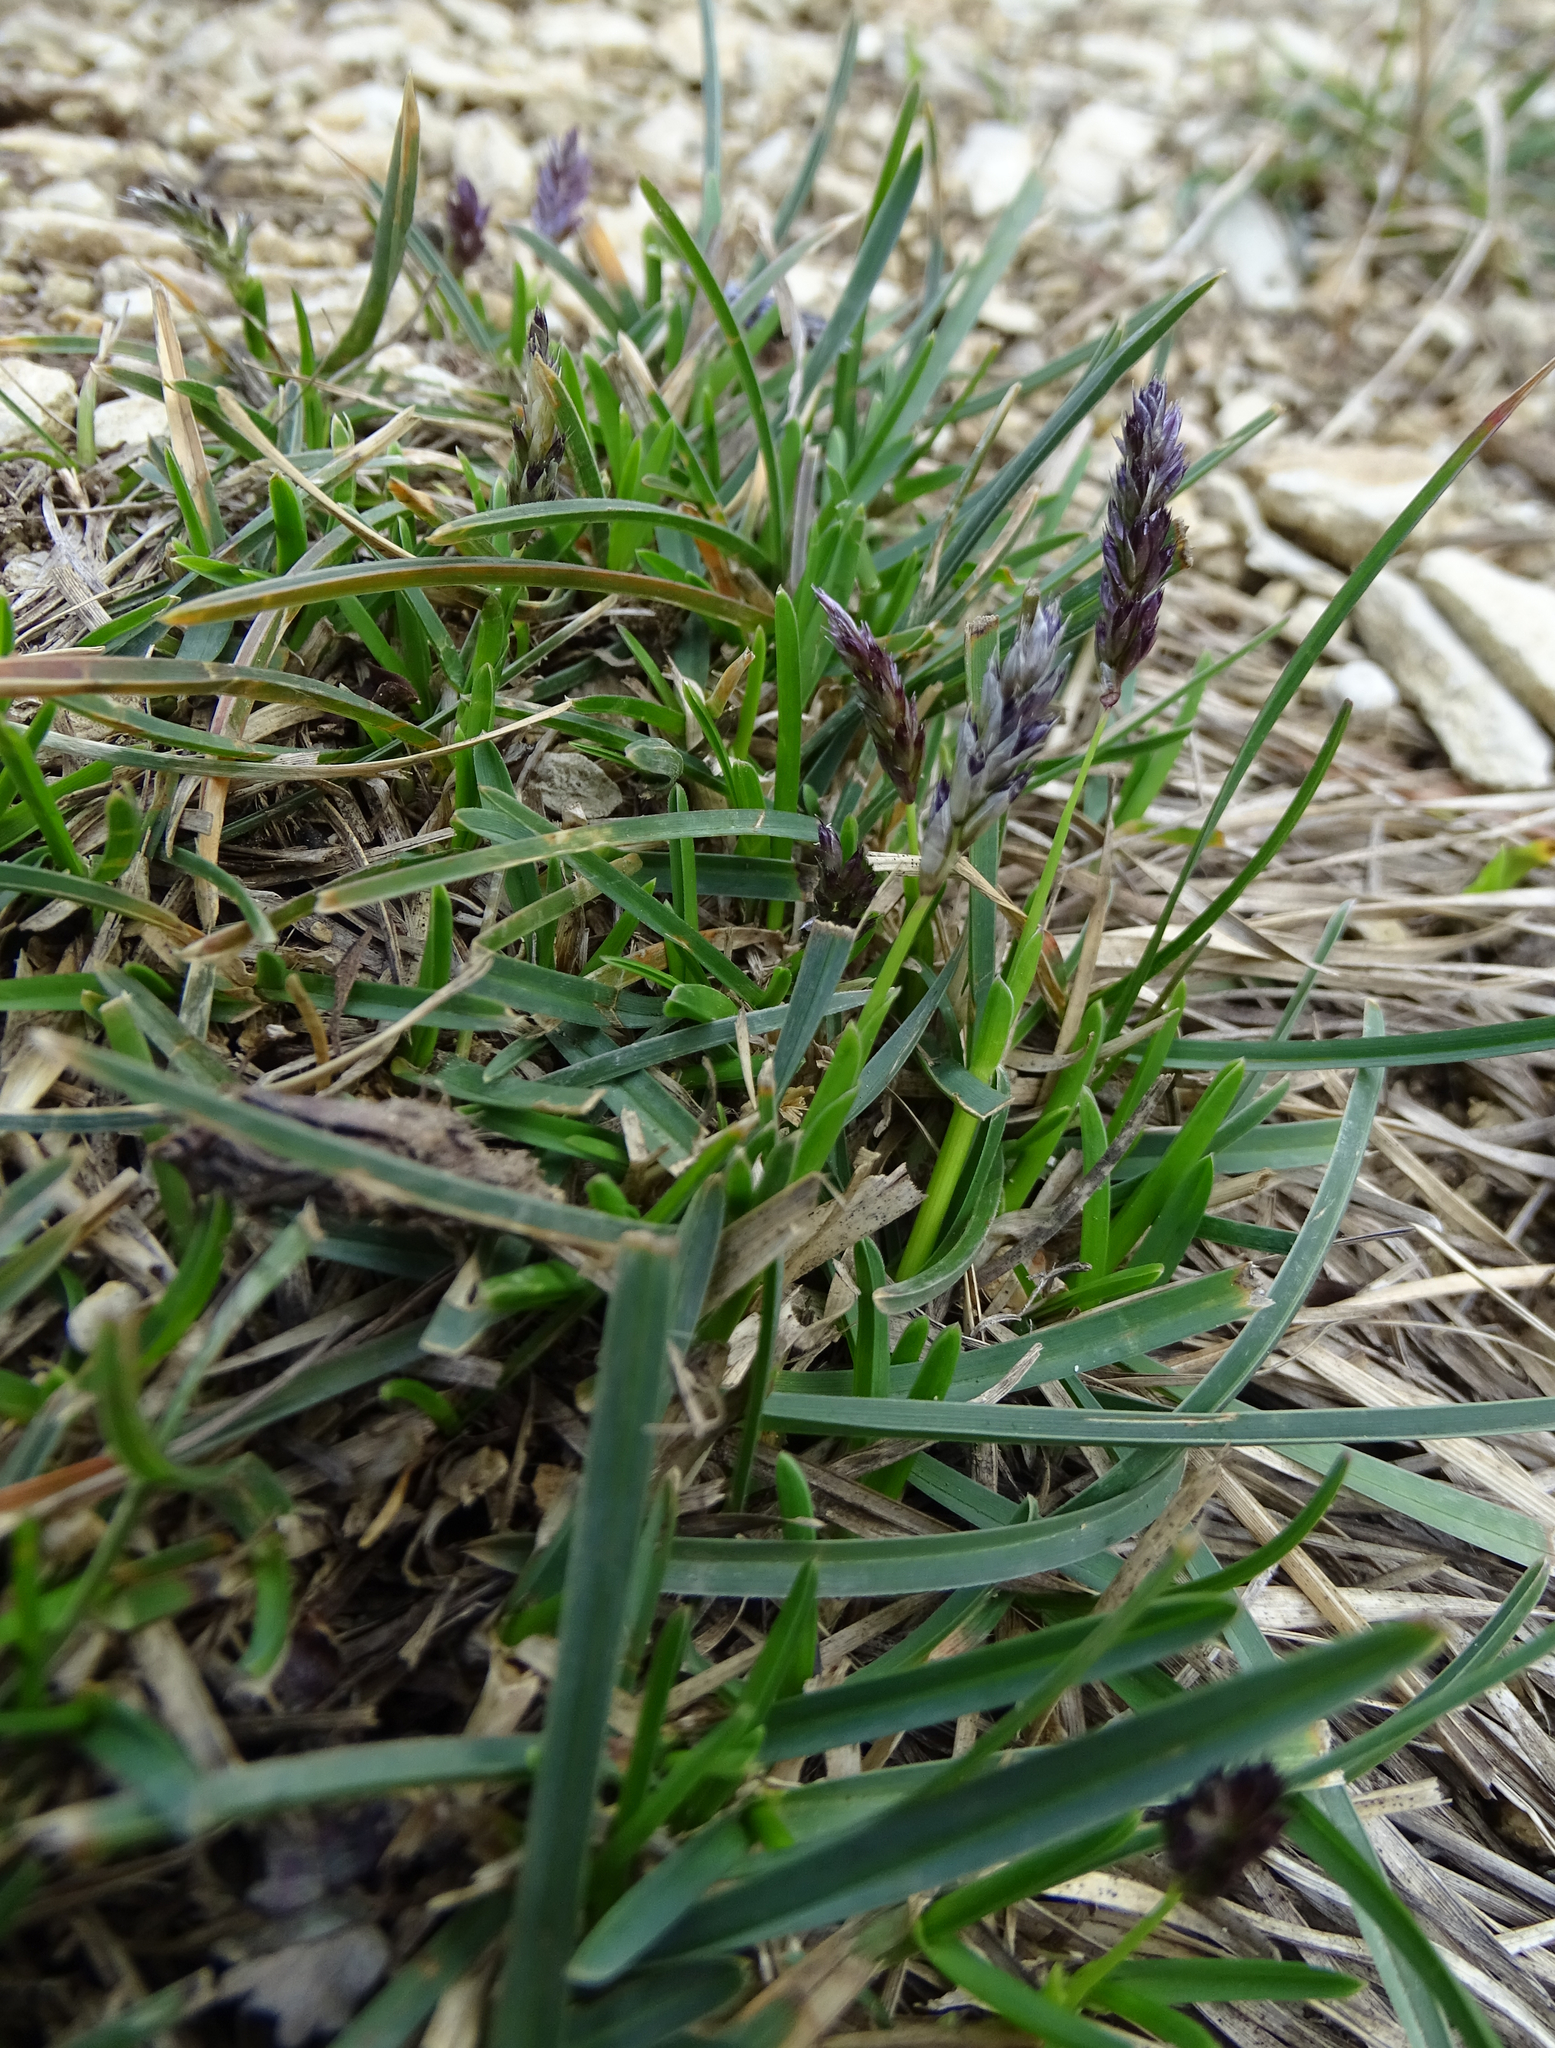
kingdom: Plantae
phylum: Tracheophyta
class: Liliopsida
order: Poales
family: Poaceae
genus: Sesleria
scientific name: Sesleria caerulea
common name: Blue moor-grass
